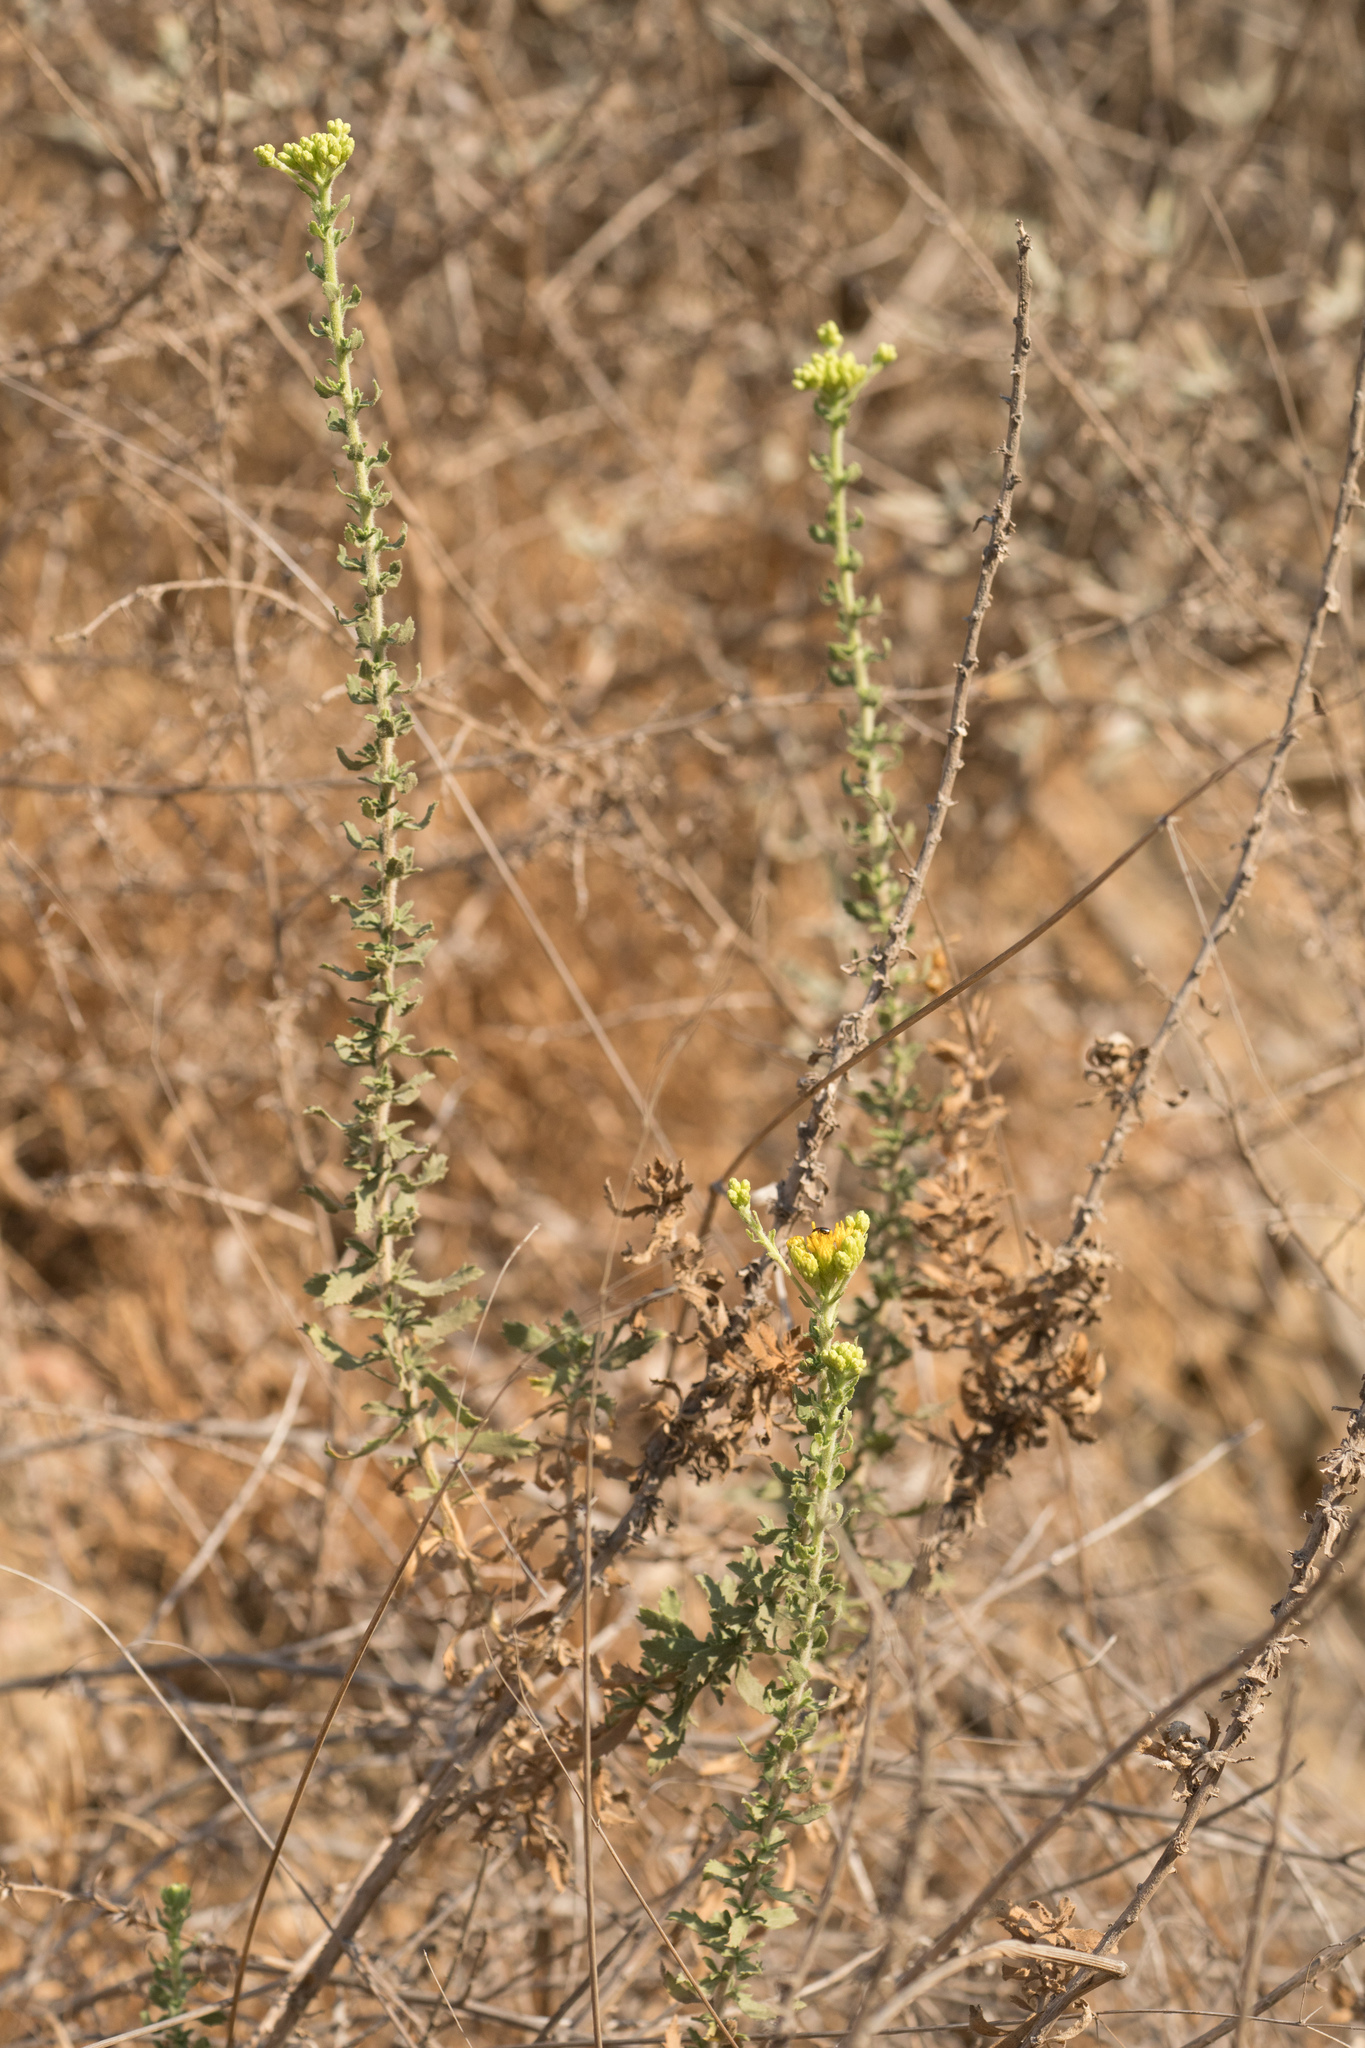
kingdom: Plantae
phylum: Tracheophyta
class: Magnoliopsida
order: Asterales
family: Asteraceae
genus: Isocoma
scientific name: Isocoma menziesii
